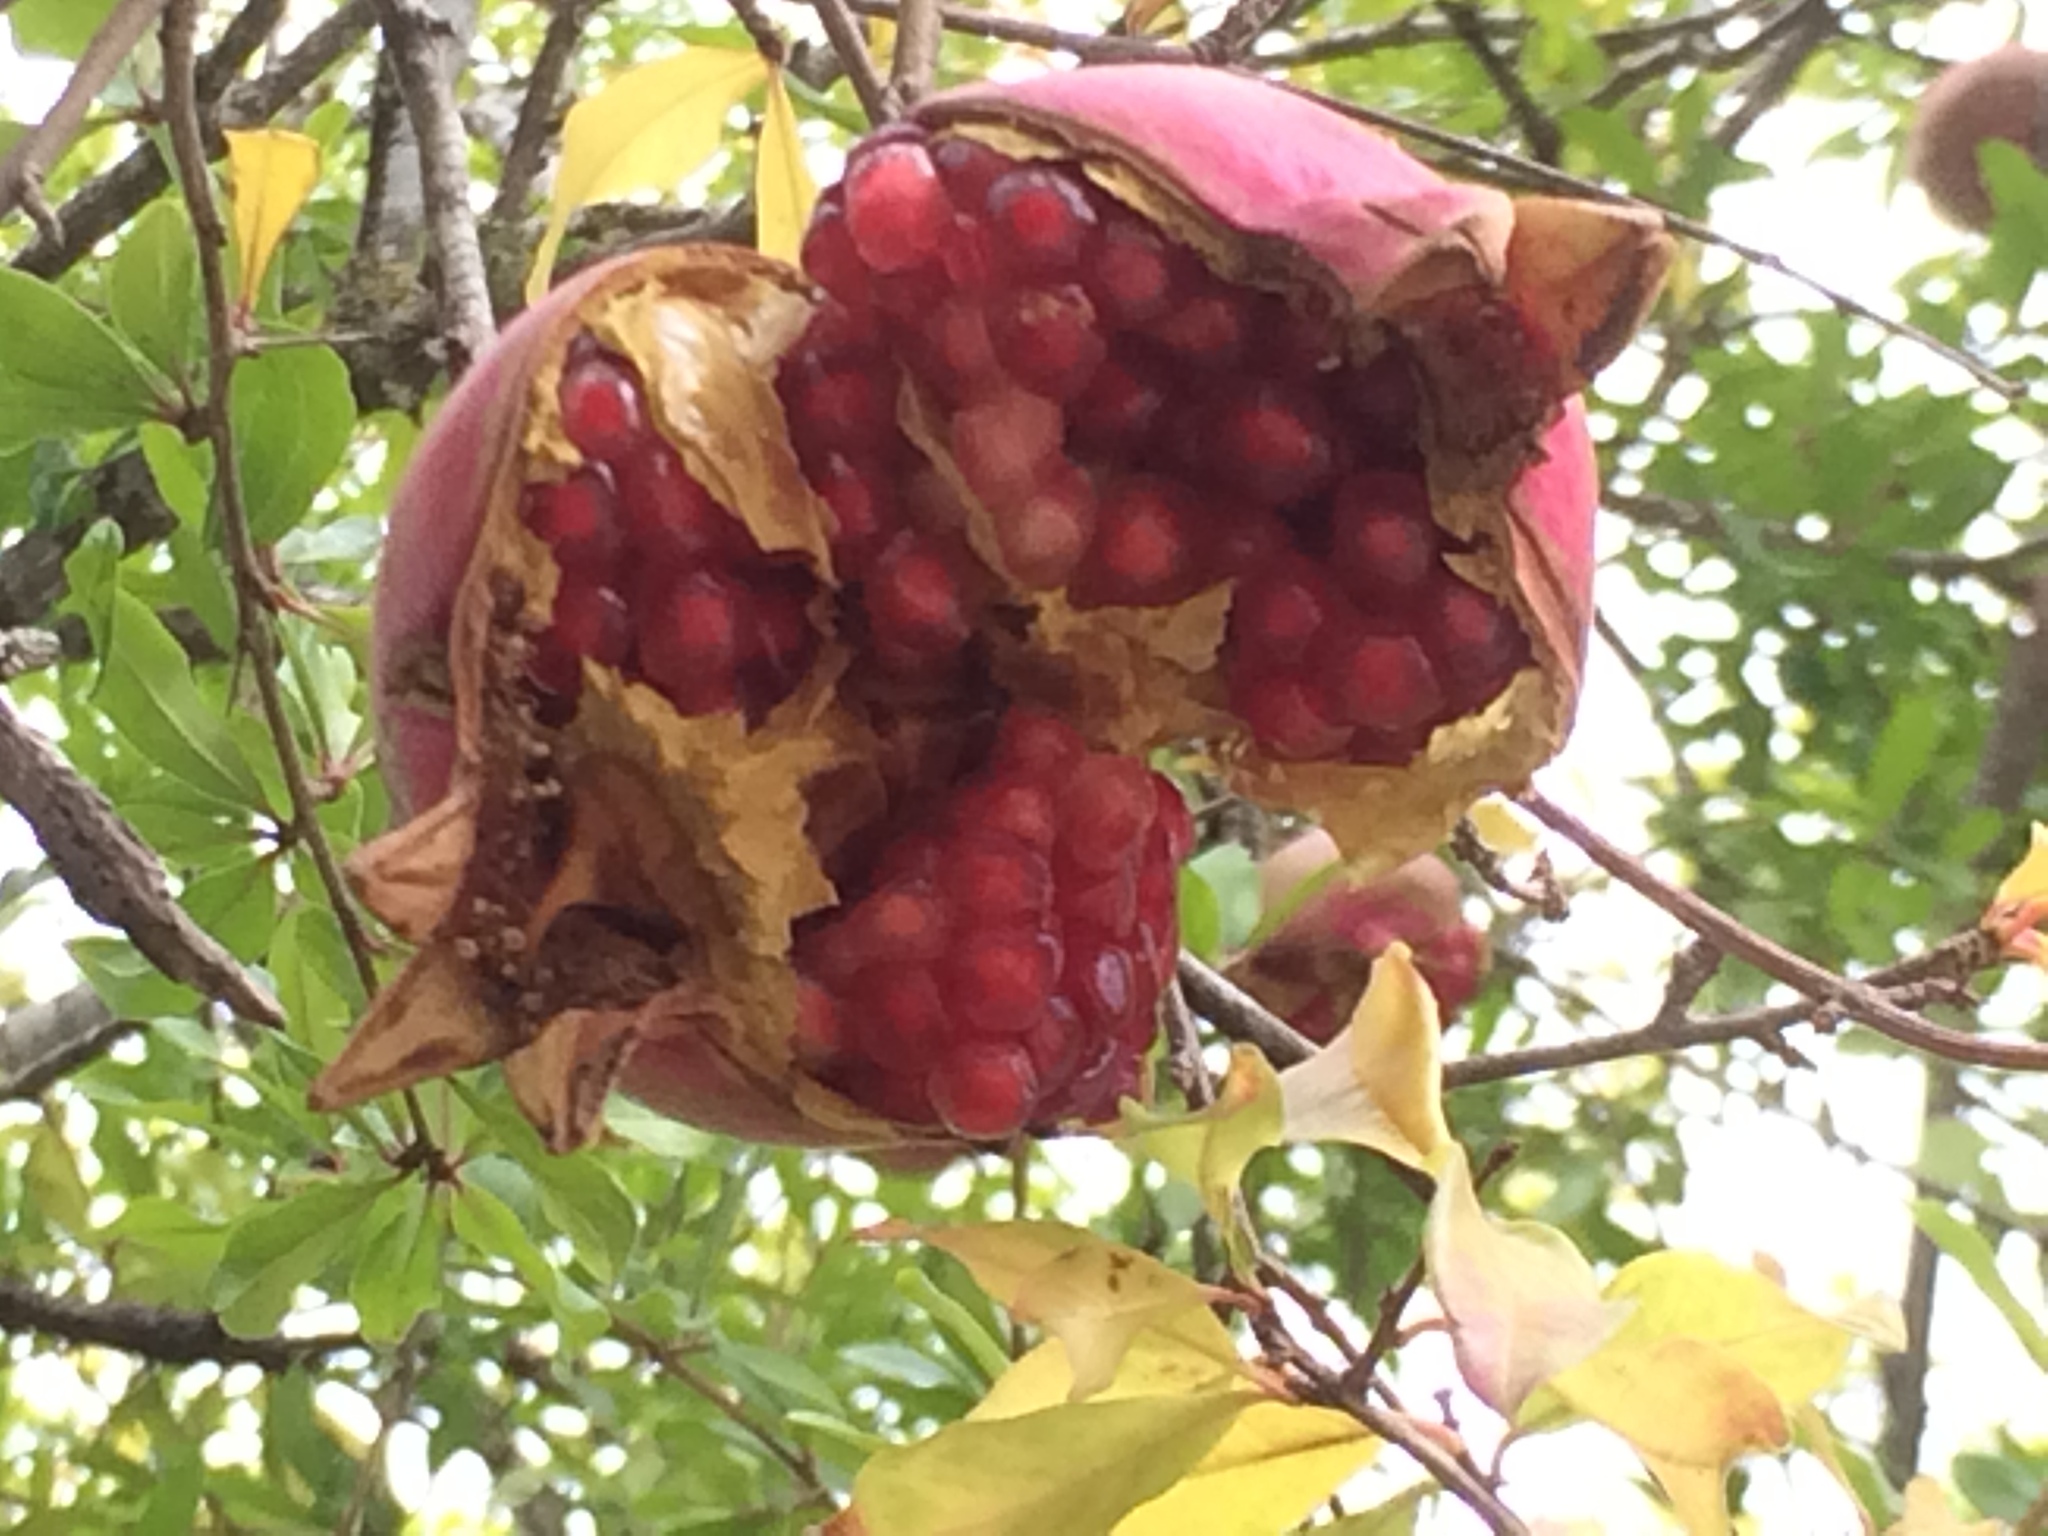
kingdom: Plantae
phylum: Tracheophyta
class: Magnoliopsida
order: Myrtales
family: Lythraceae
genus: Punica
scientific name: Punica granatum
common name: Pomegranate
